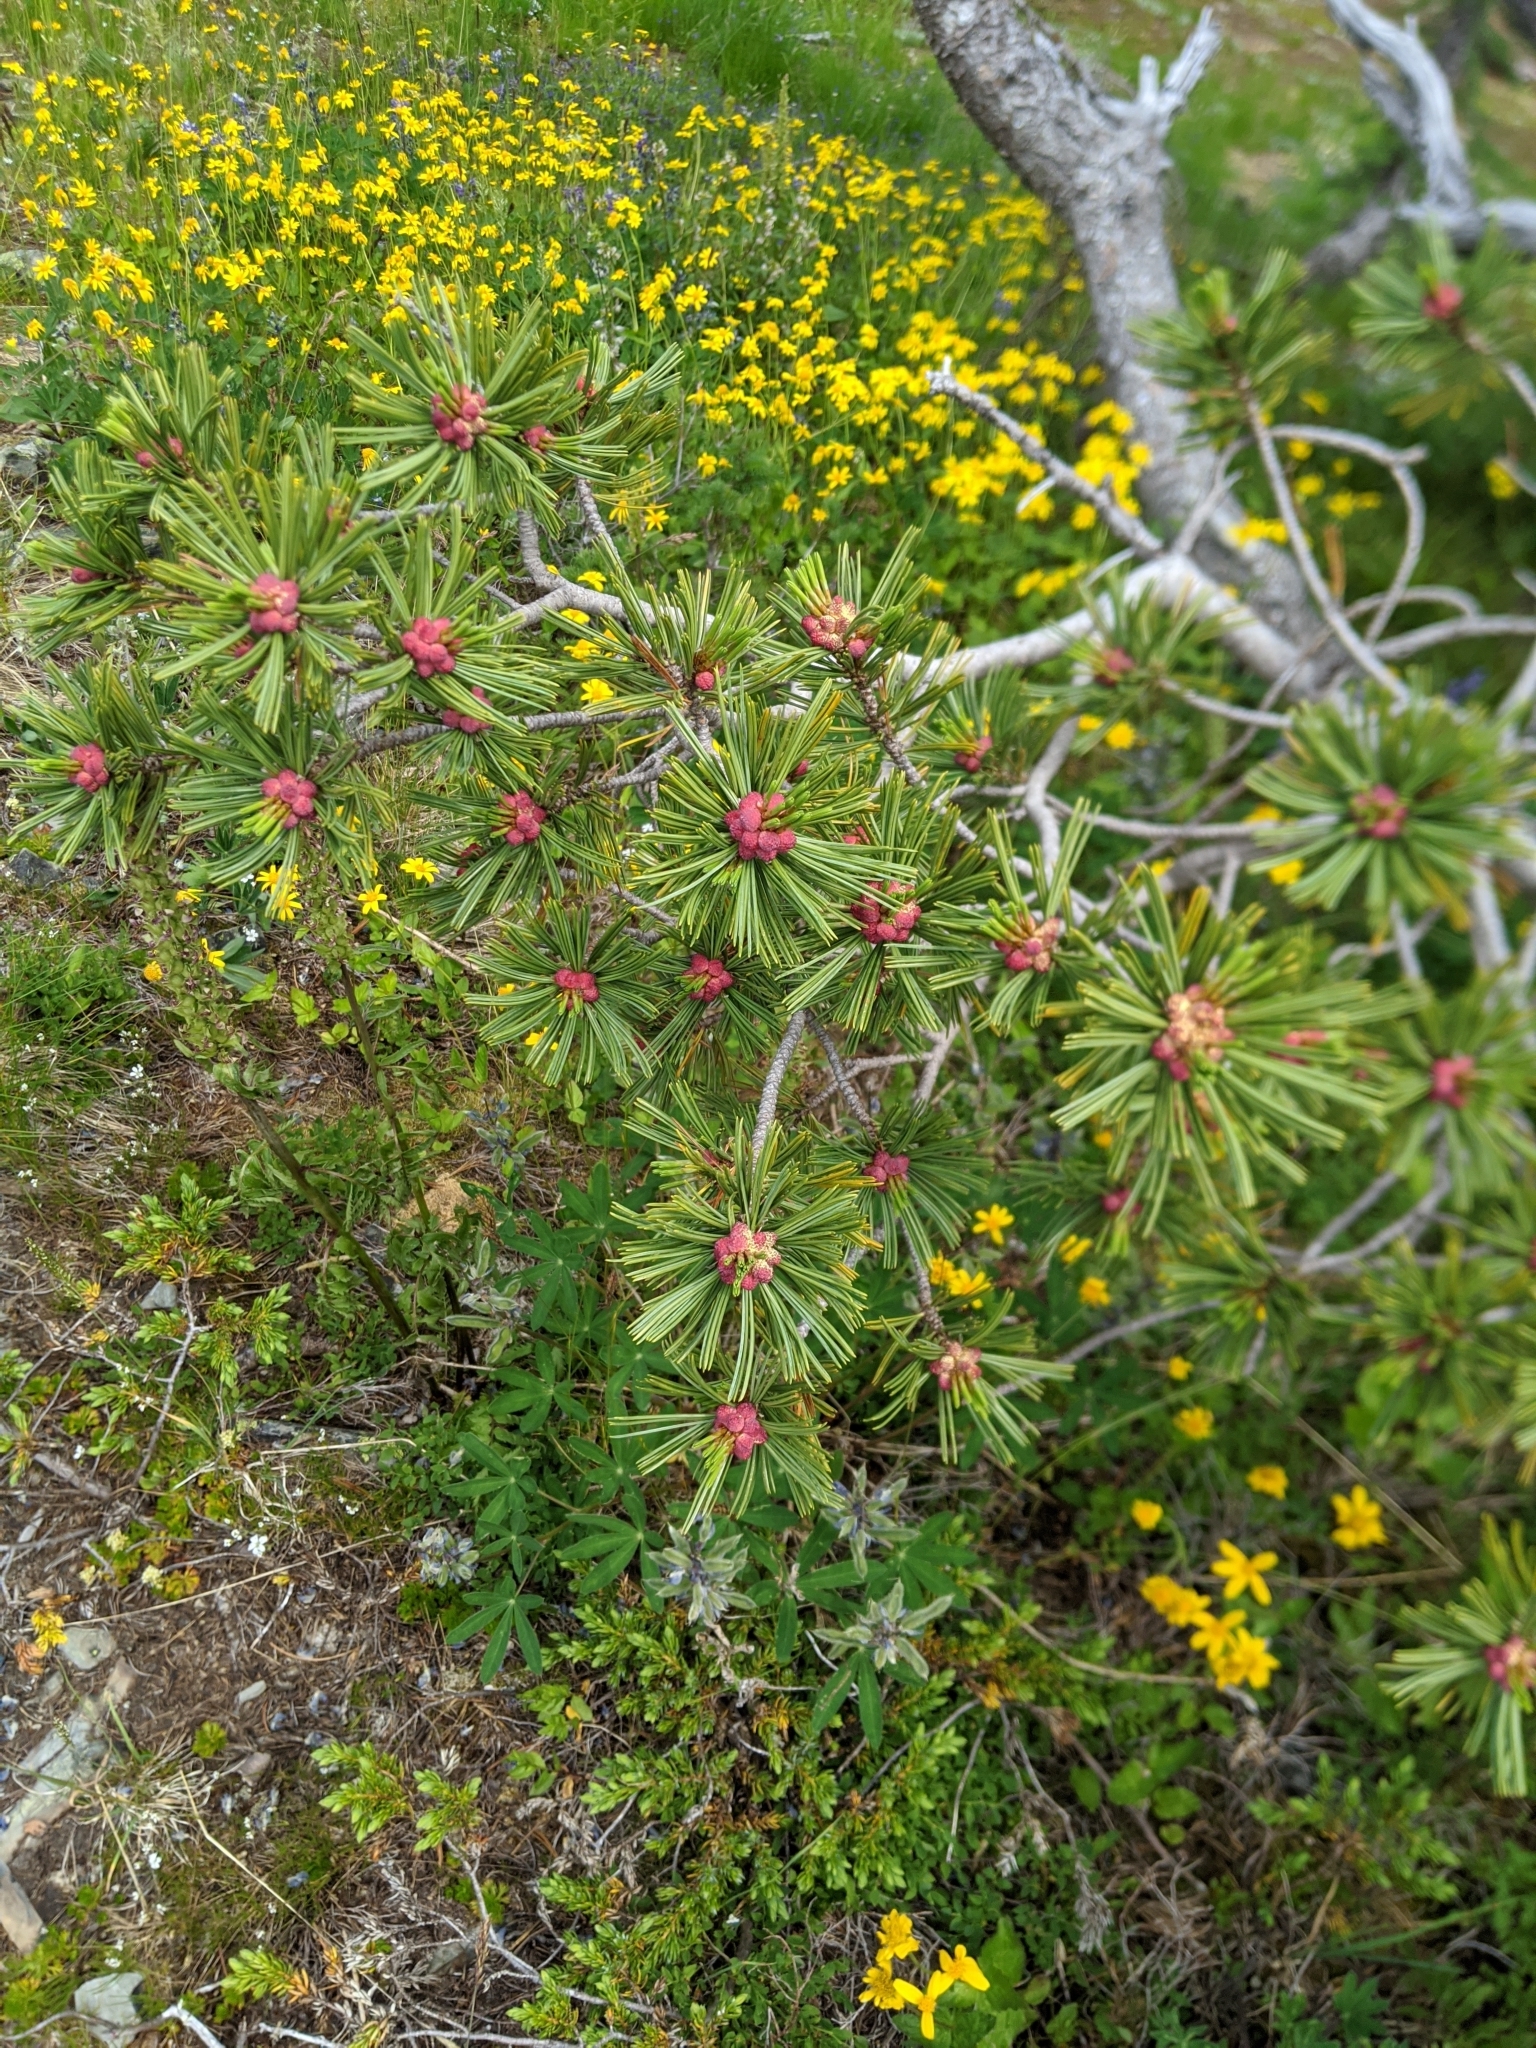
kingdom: Plantae
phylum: Tracheophyta
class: Pinopsida
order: Pinales
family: Pinaceae
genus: Pinus
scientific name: Pinus albicaulis
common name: Whitebark pine
